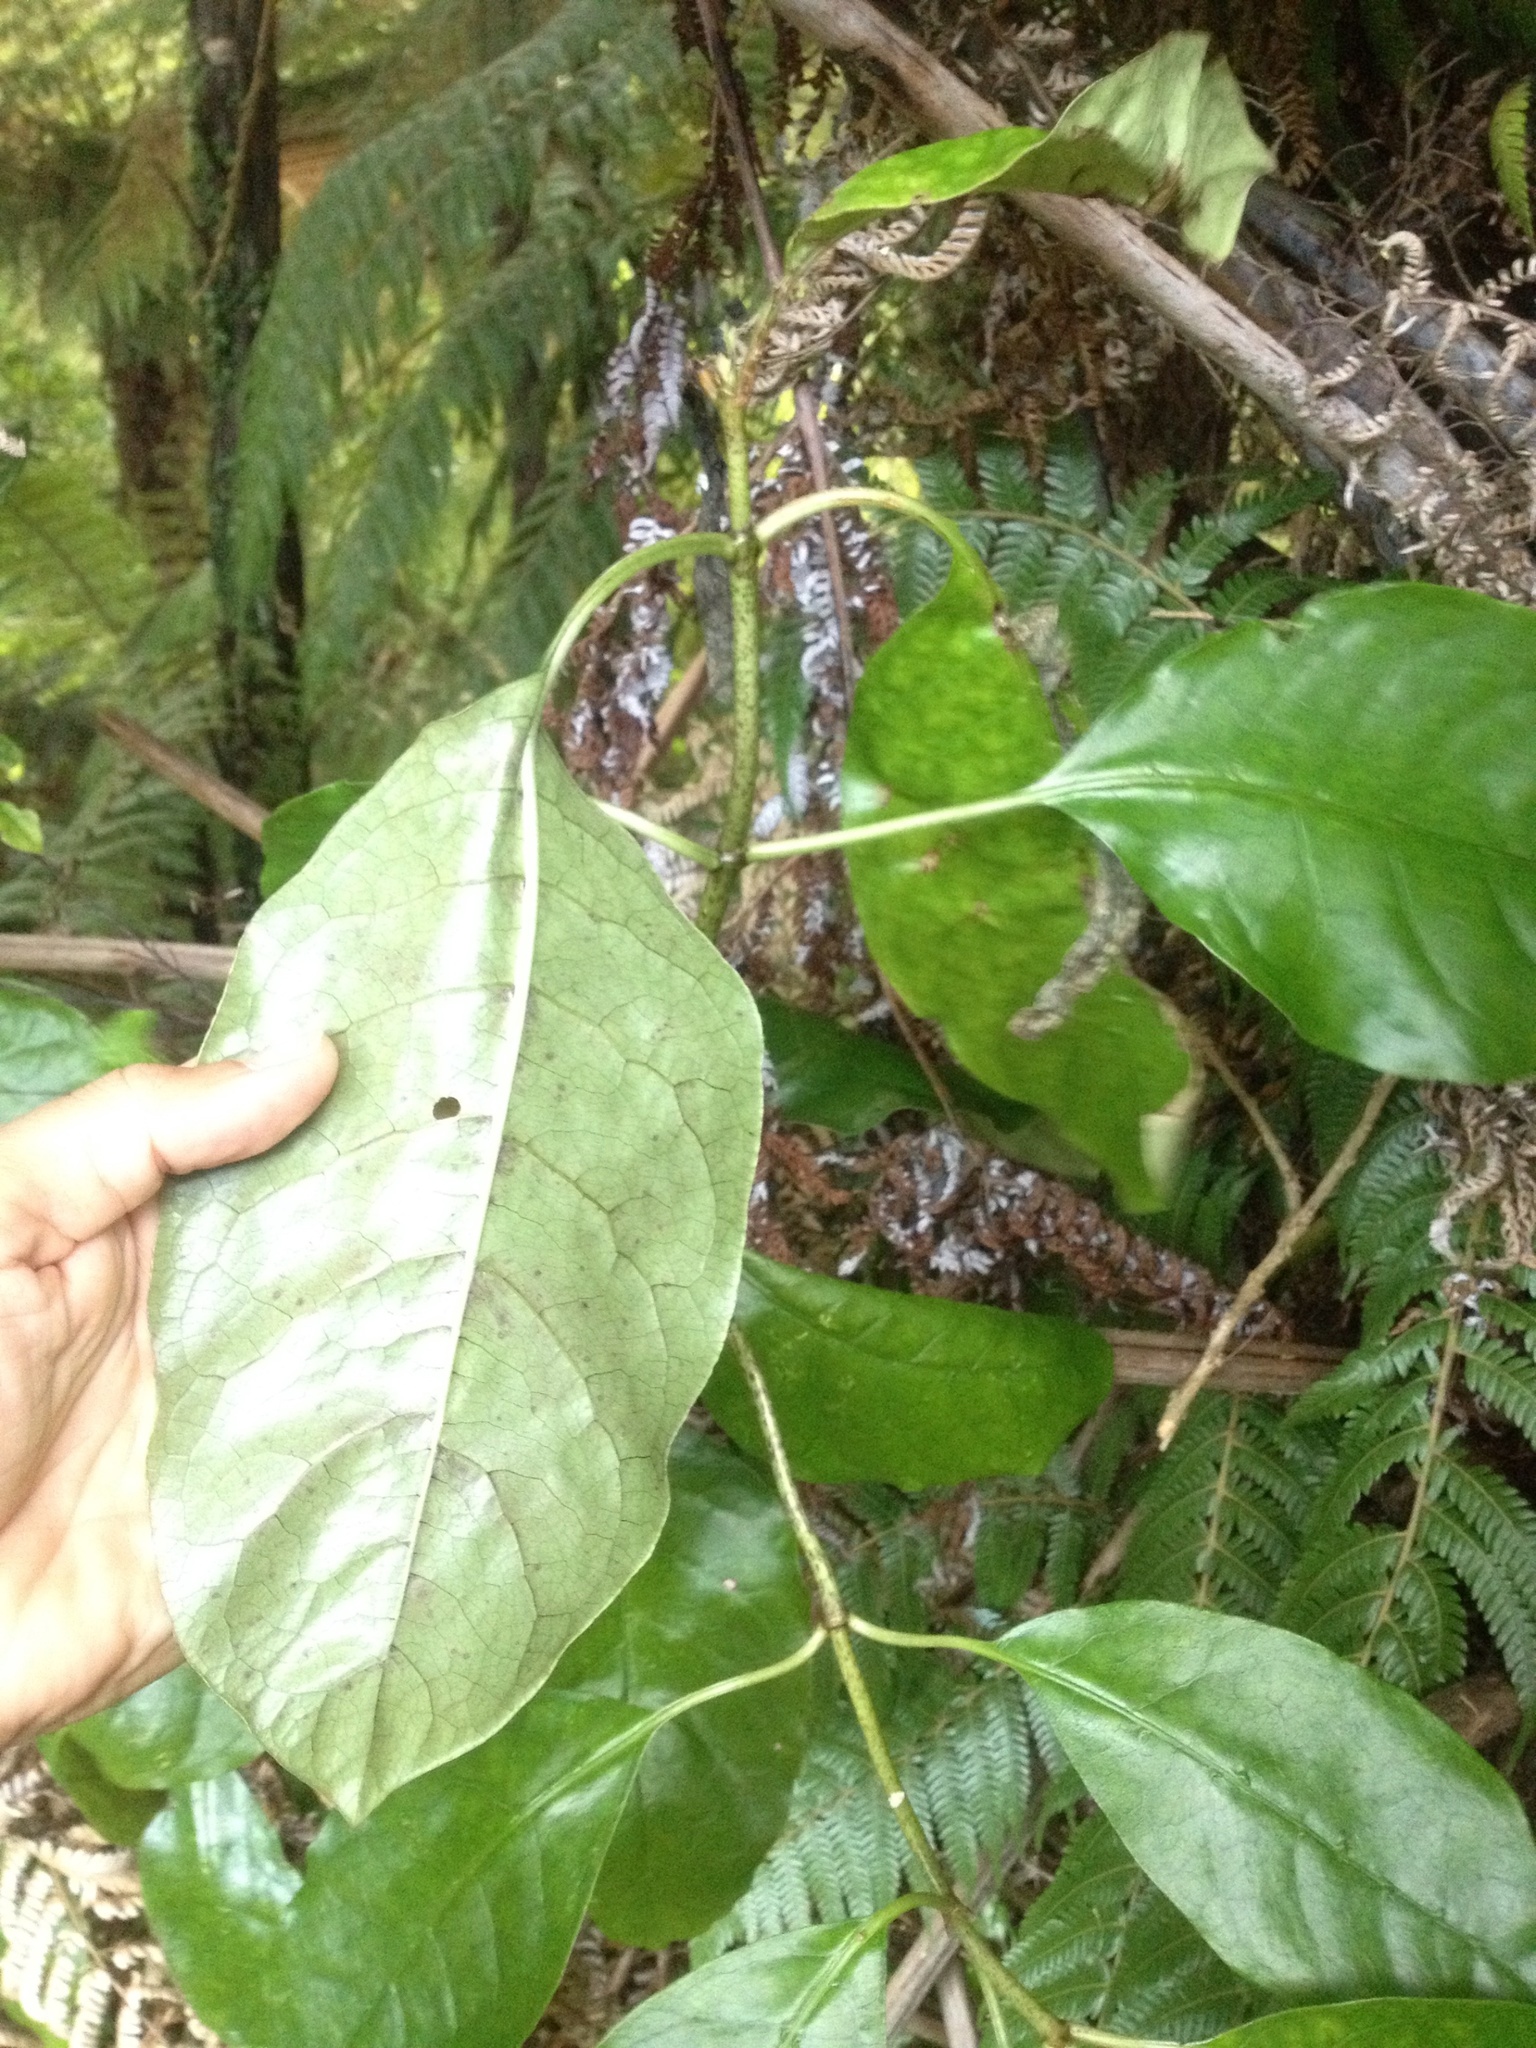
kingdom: Plantae
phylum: Tracheophyta
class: Magnoliopsida
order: Gentianales
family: Rubiaceae
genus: Coprosma
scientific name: Coprosma autumnalis
